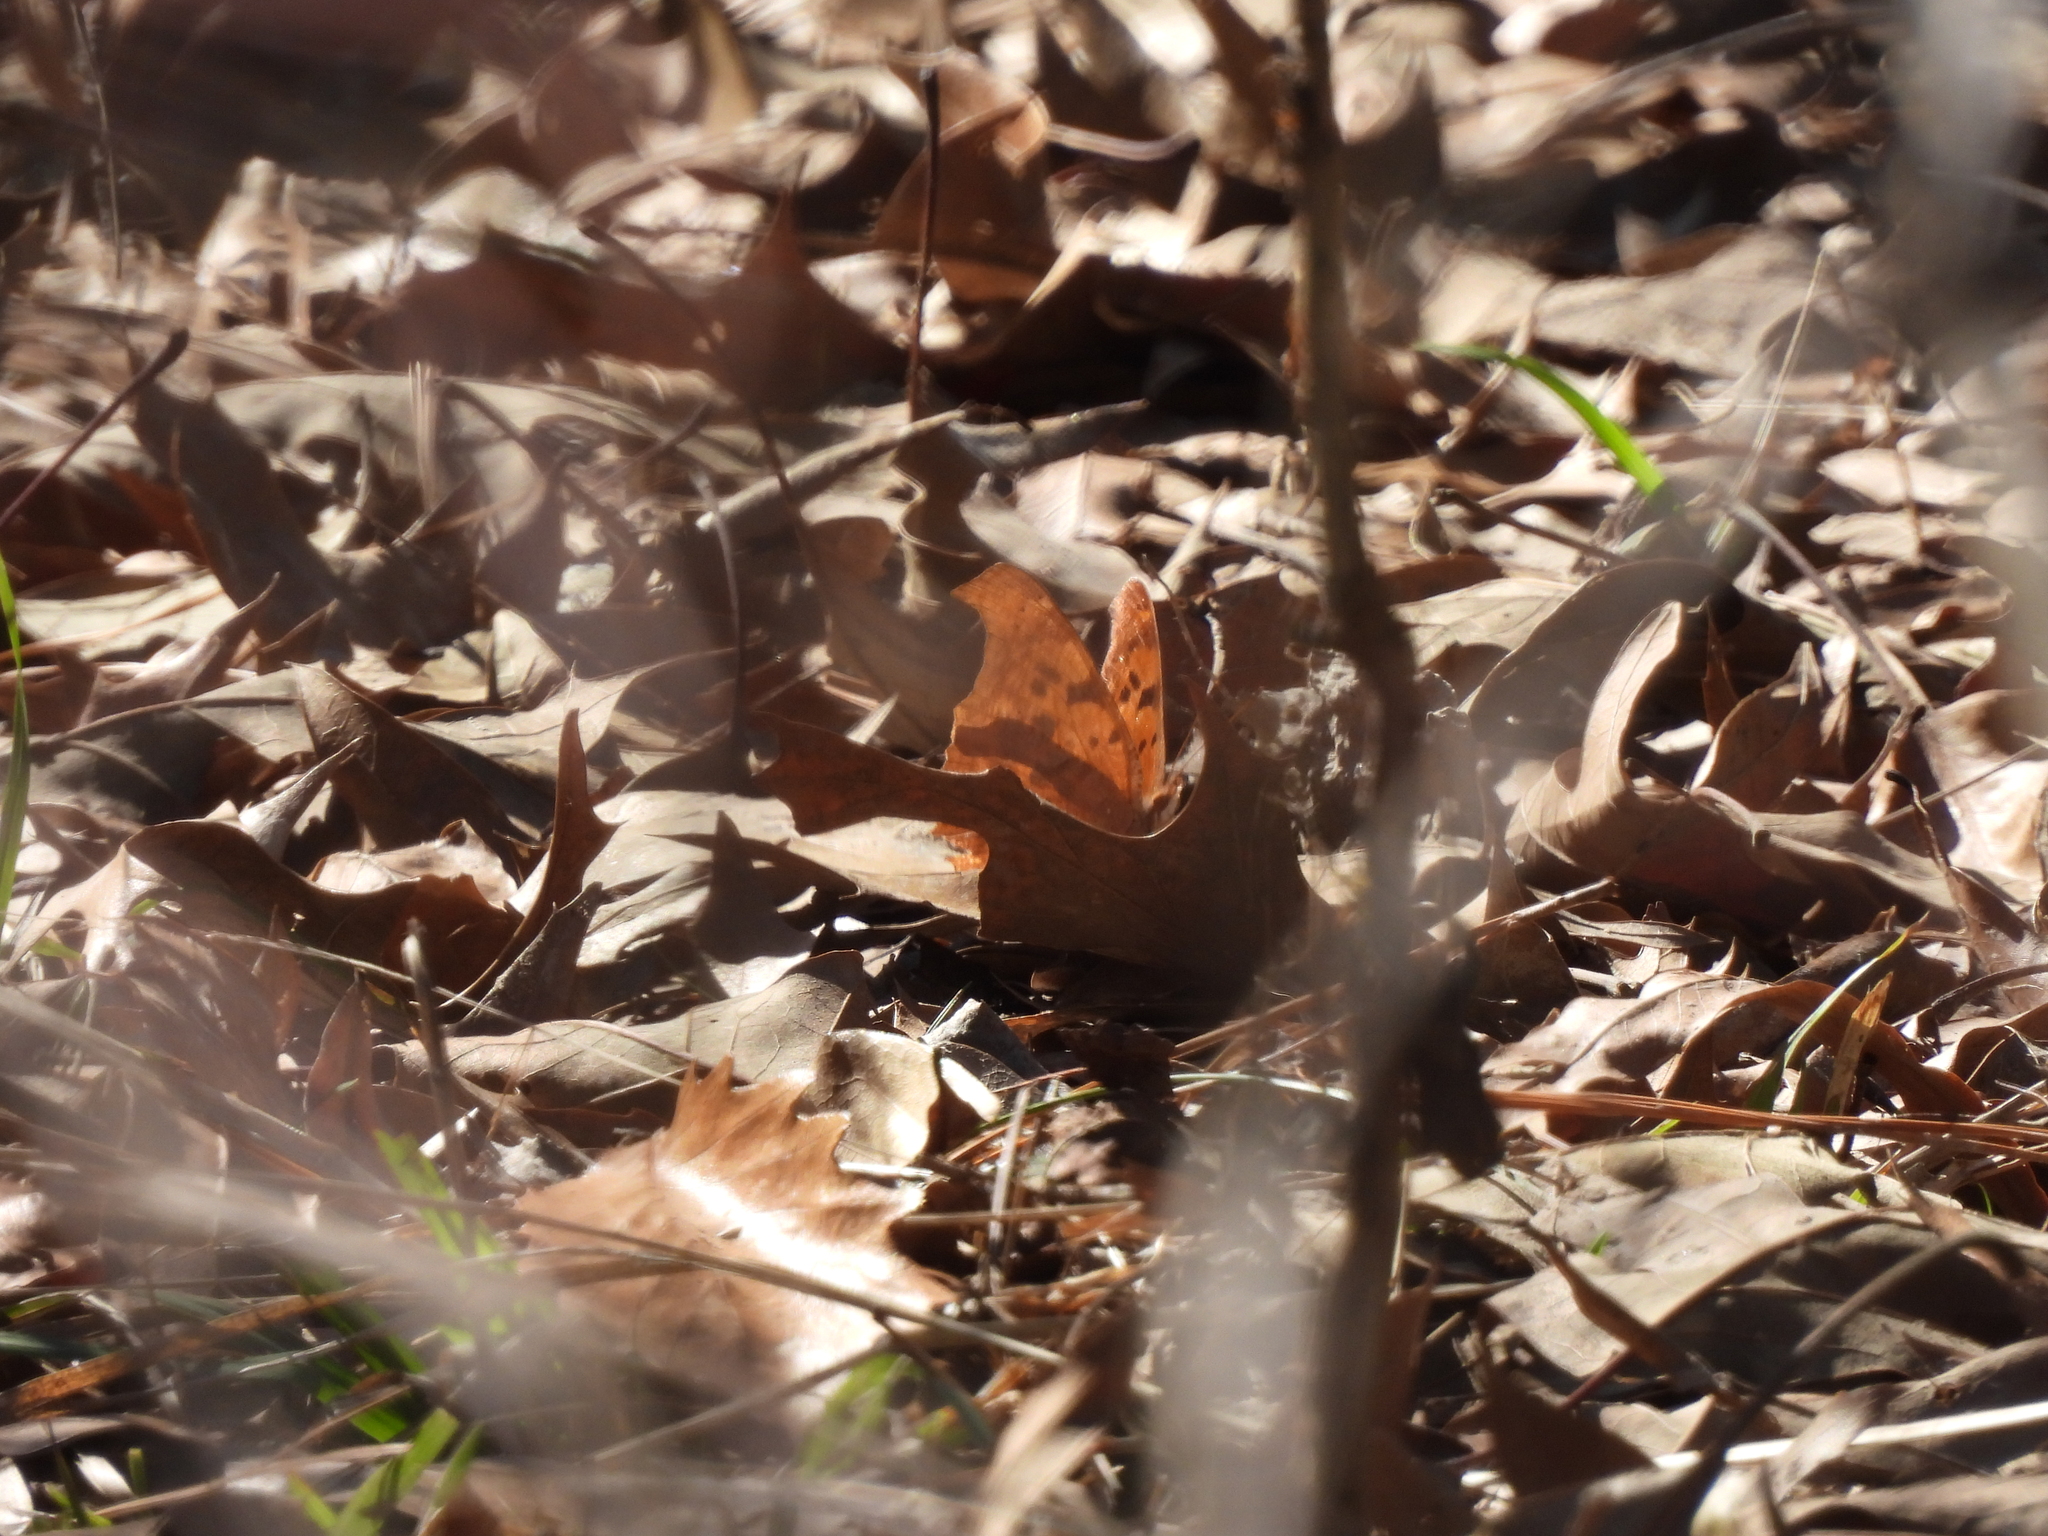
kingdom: Animalia
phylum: Arthropoda
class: Insecta
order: Lepidoptera
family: Nymphalidae
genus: Polygonia
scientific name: Polygonia interrogationis
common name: Question mark
